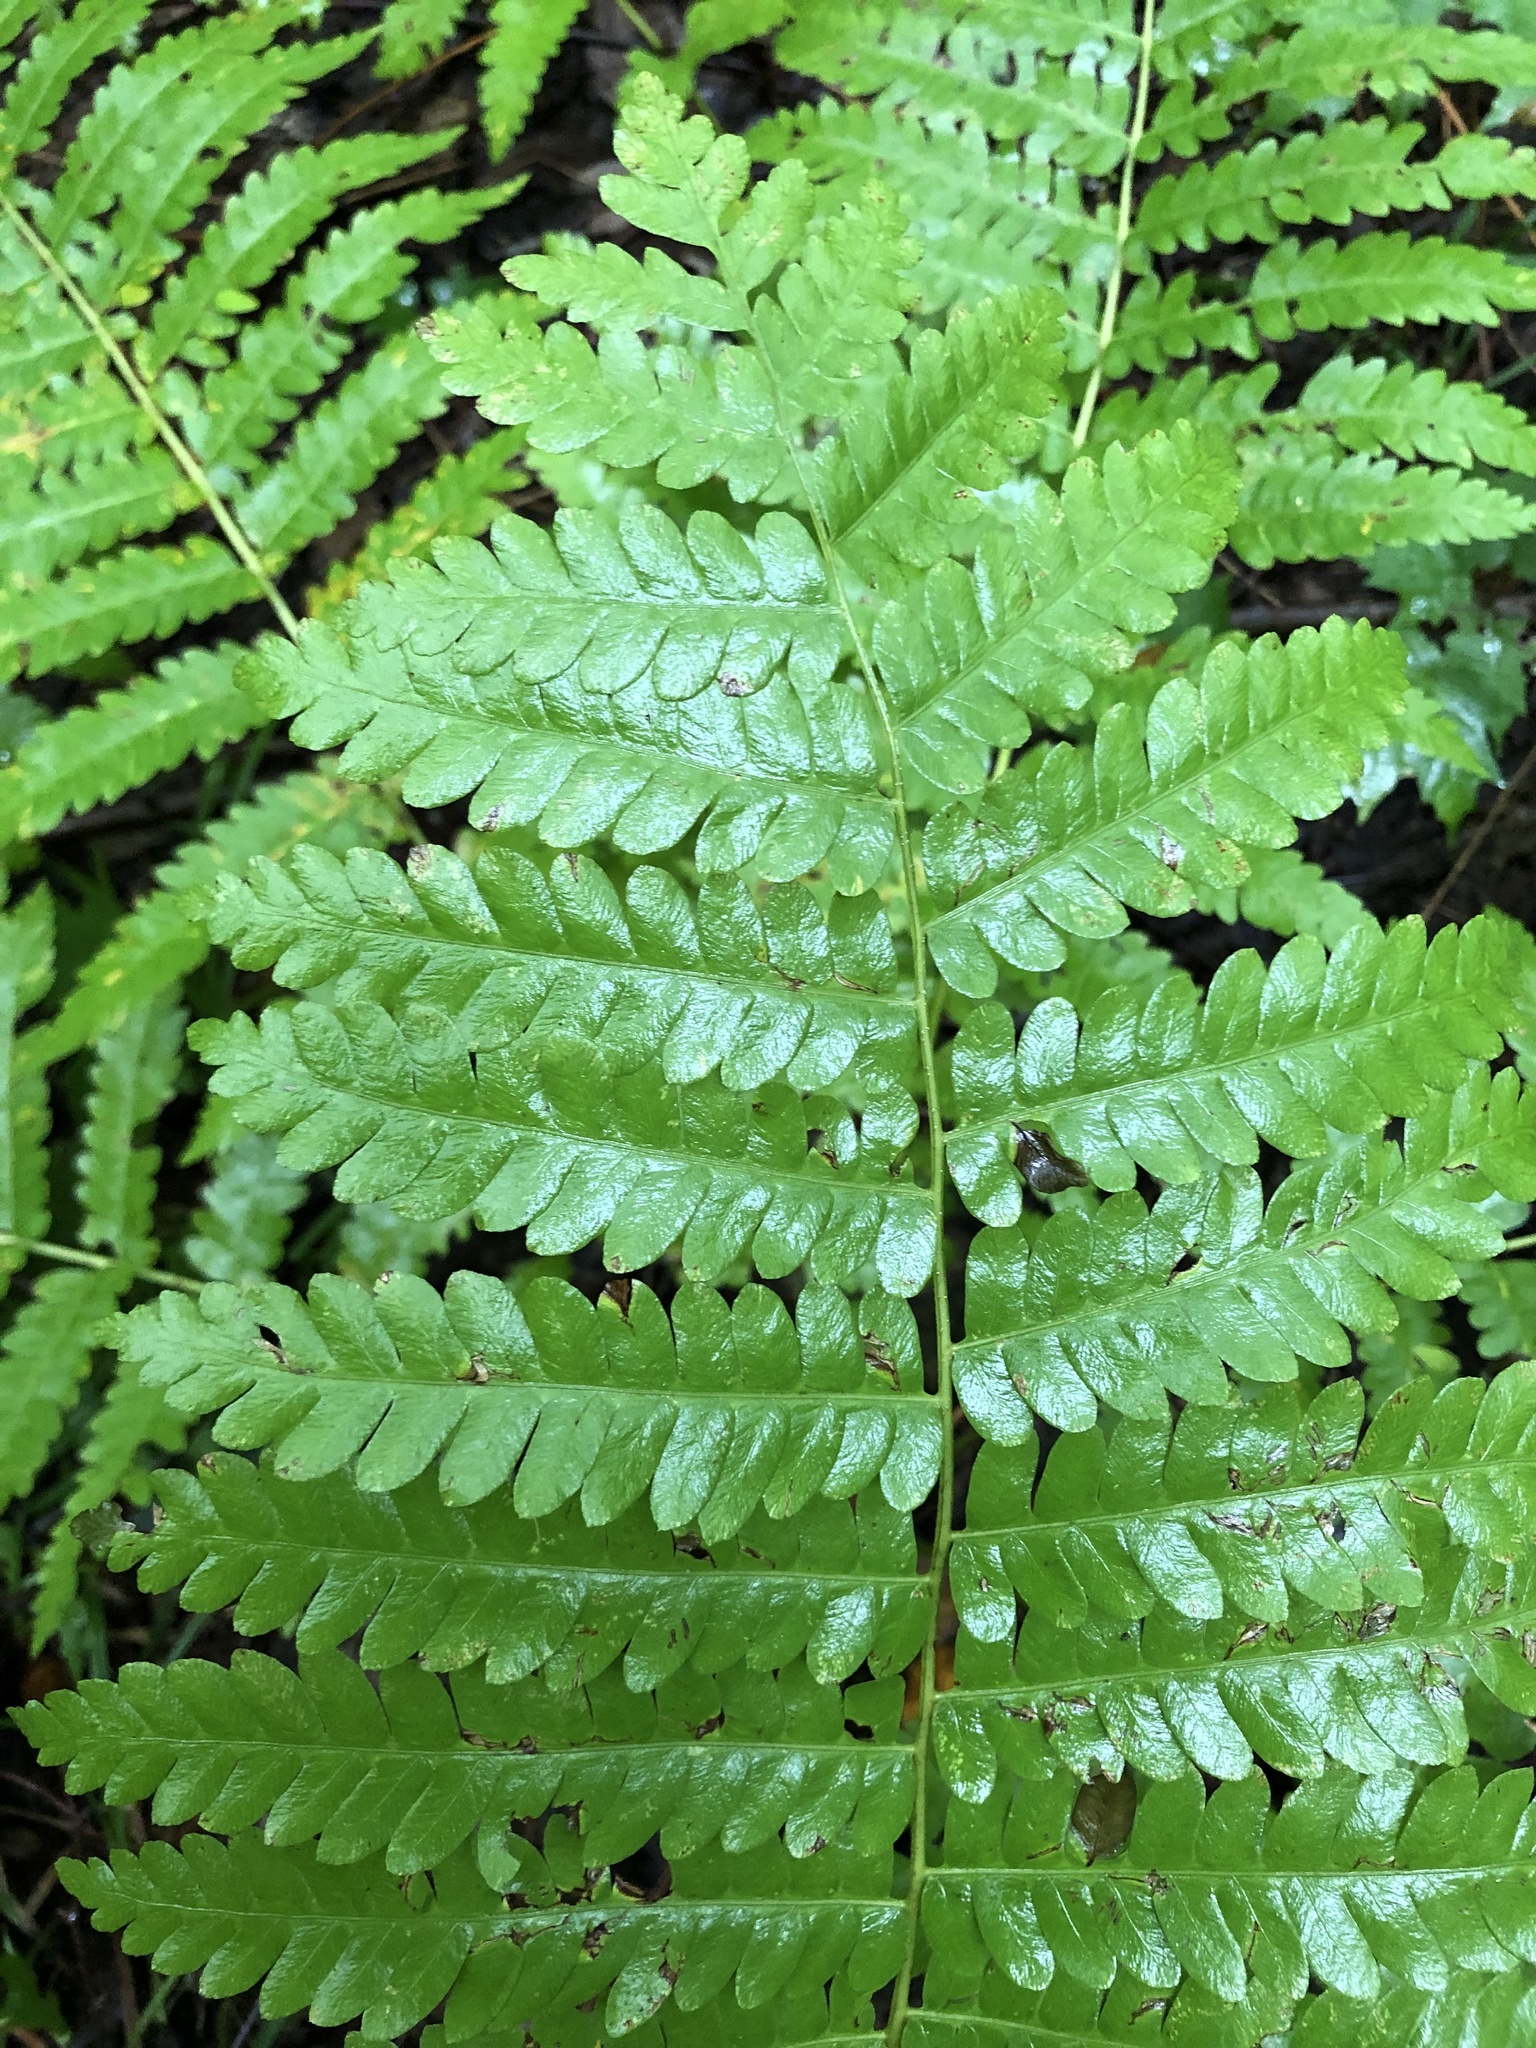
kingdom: Plantae
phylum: Tracheophyta
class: Polypodiopsida
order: Osmundales
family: Osmundaceae
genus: Claytosmunda
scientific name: Claytosmunda claytoniana
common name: Clayton's fern
